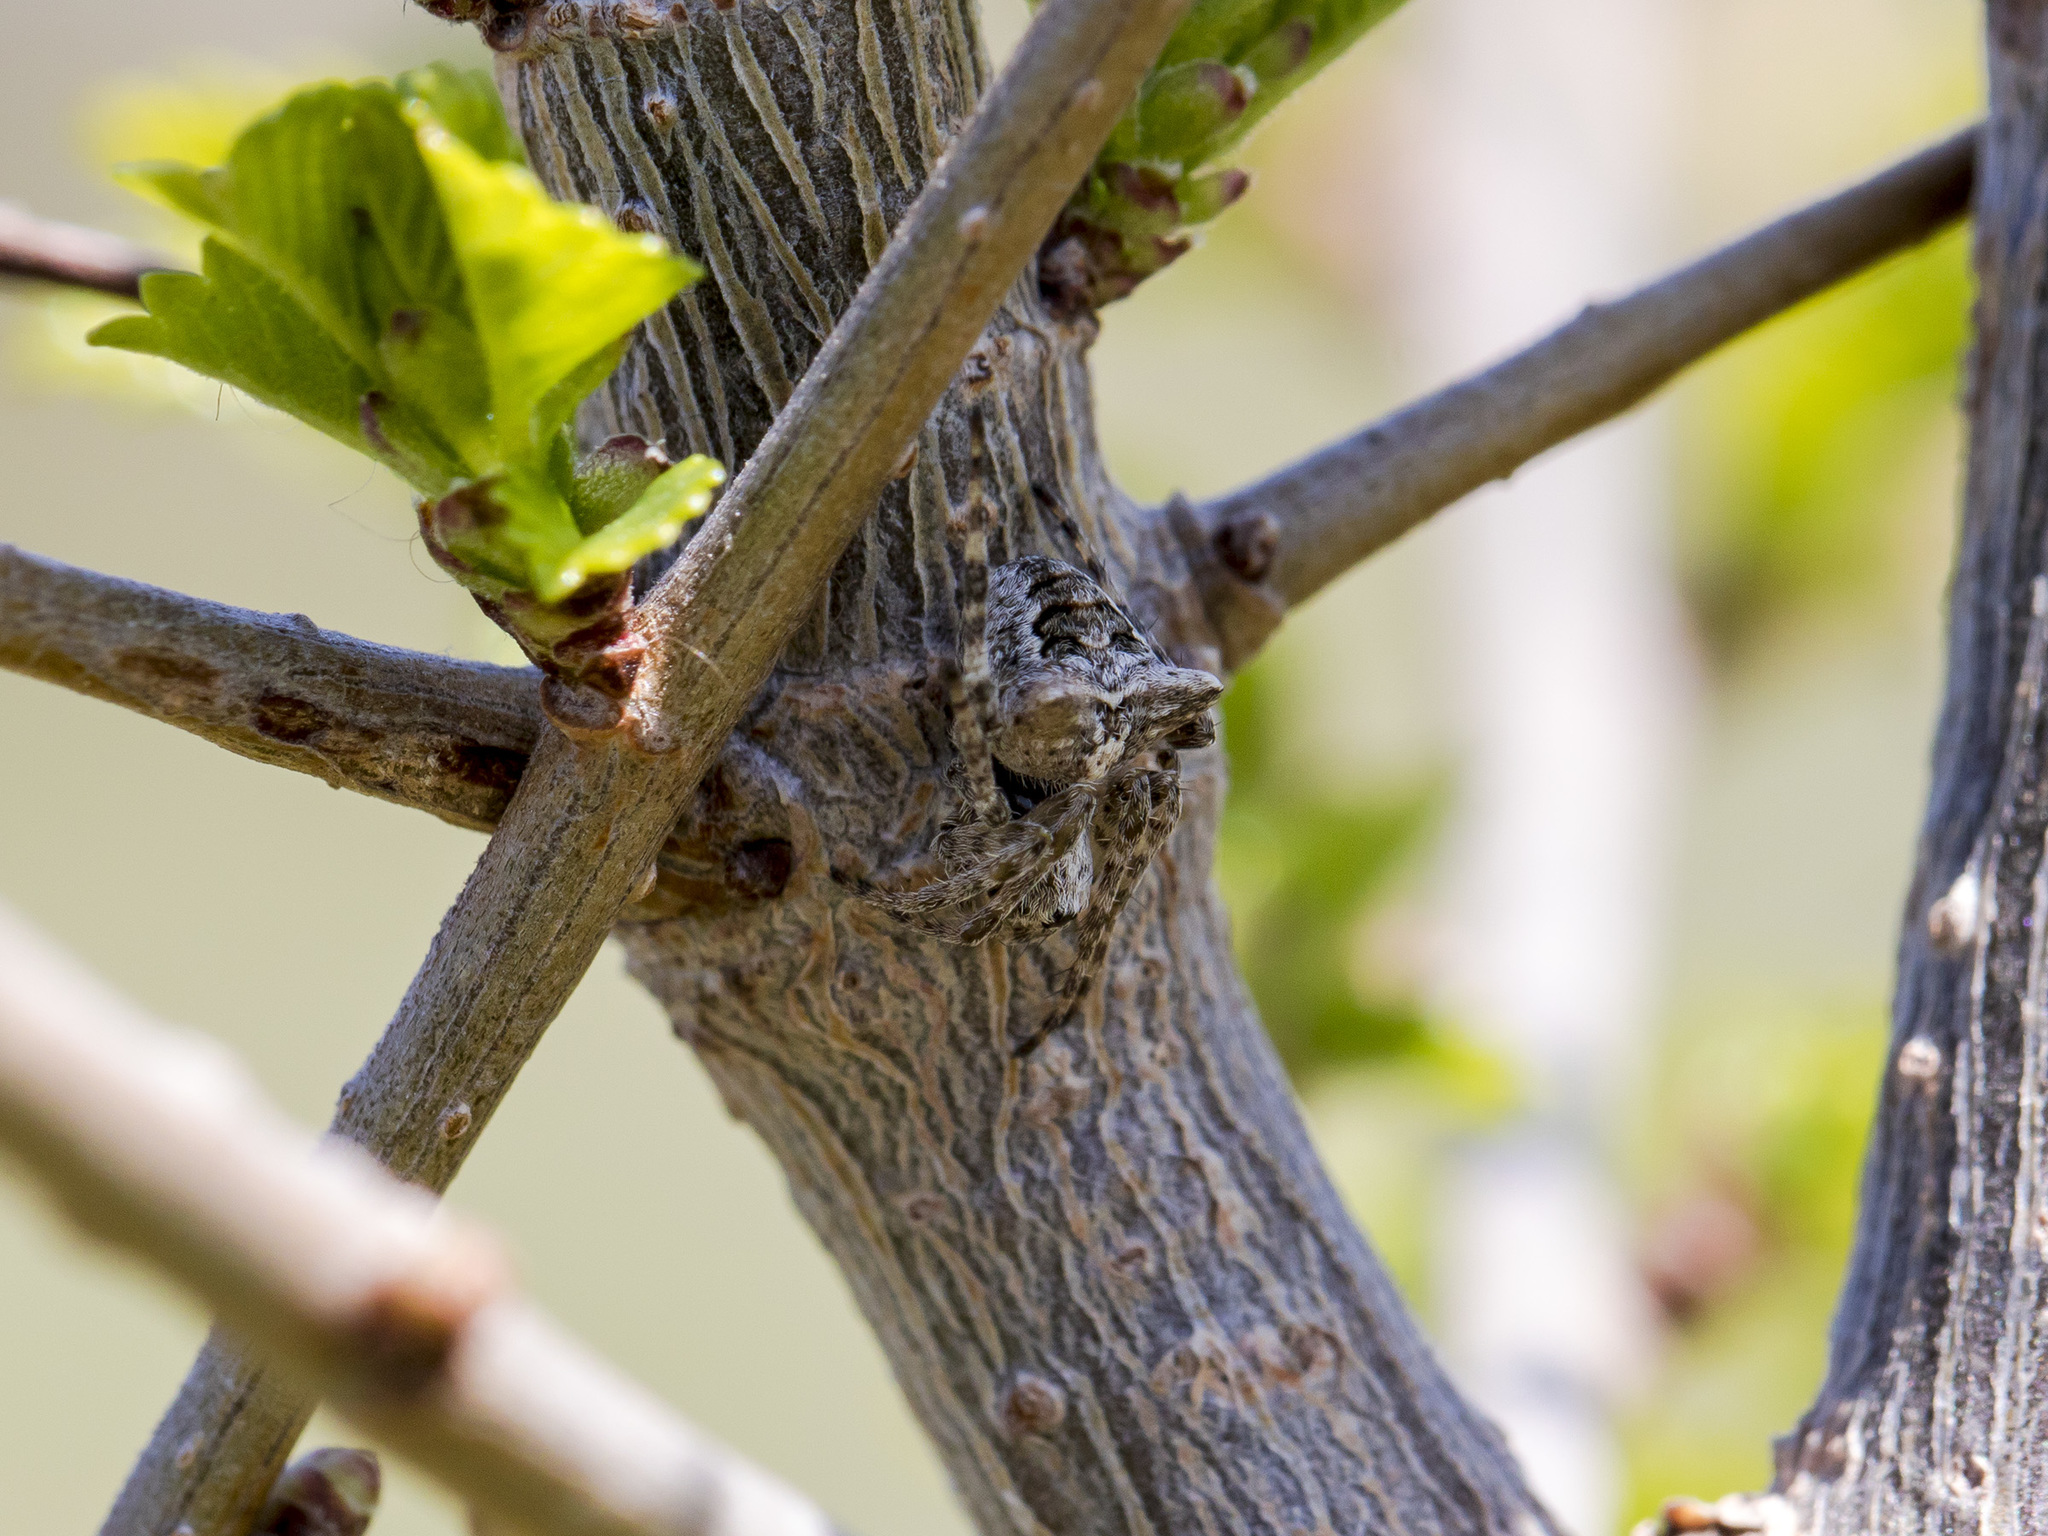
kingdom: Animalia
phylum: Arthropoda
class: Arachnida
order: Araneae
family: Araneidae
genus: Gibbaranea
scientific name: Gibbaranea ullrichi
